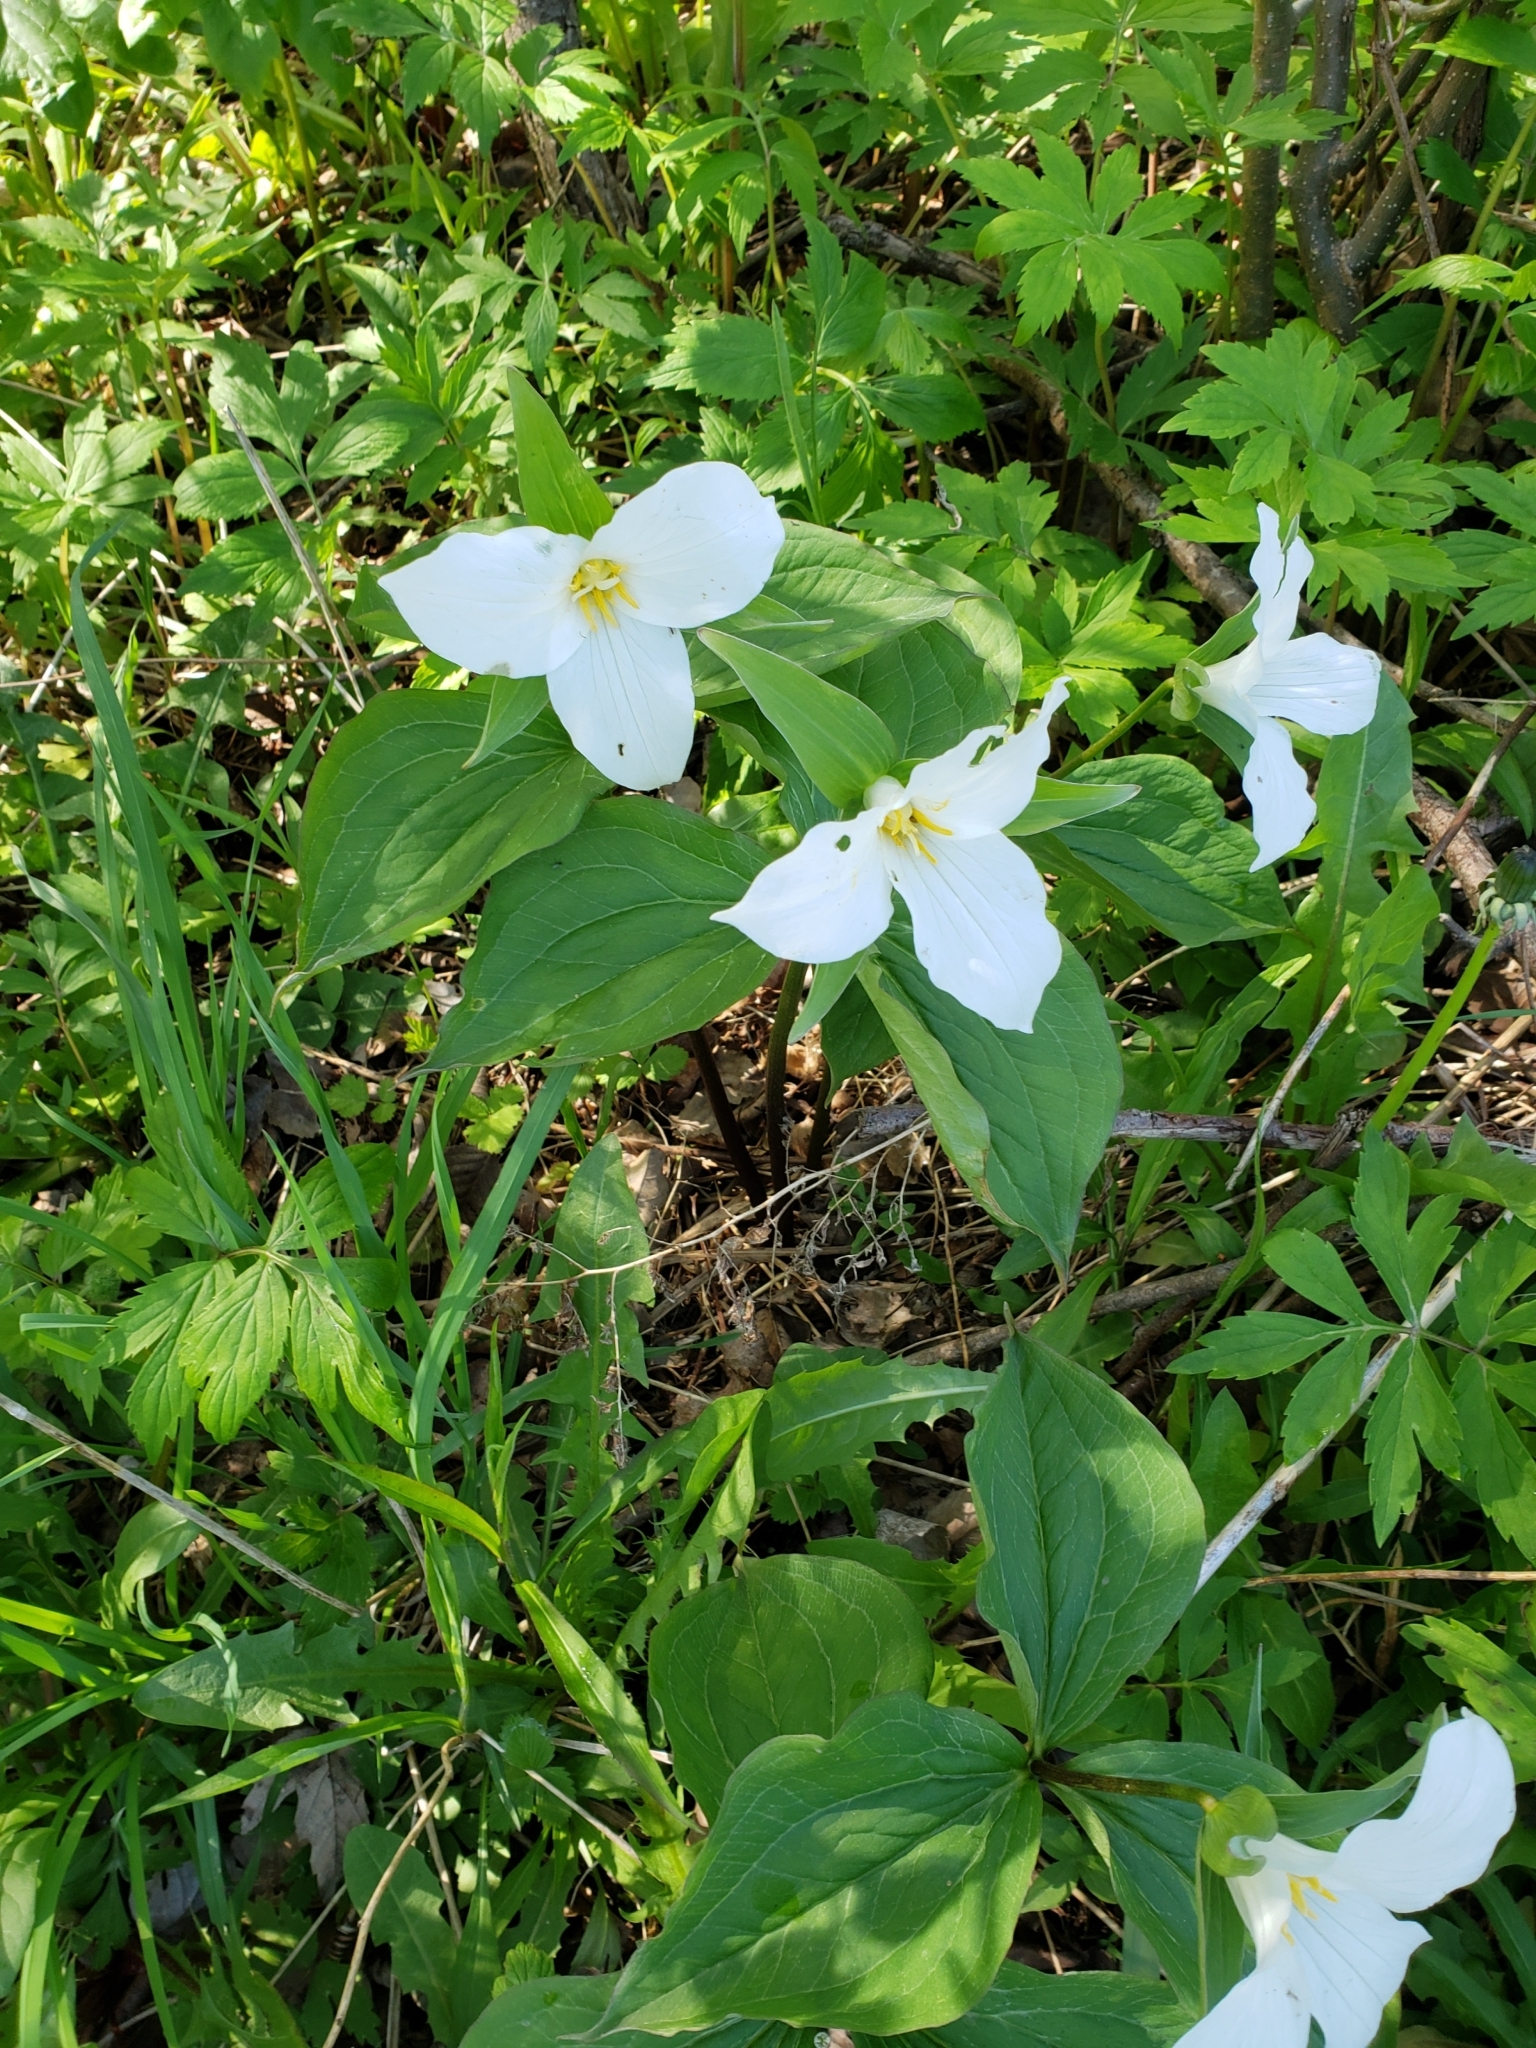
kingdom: Plantae
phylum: Tracheophyta
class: Liliopsida
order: Liliales
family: Melanthiaceae
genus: Trillium
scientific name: Trillium grandiflorum
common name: Great white trillium
